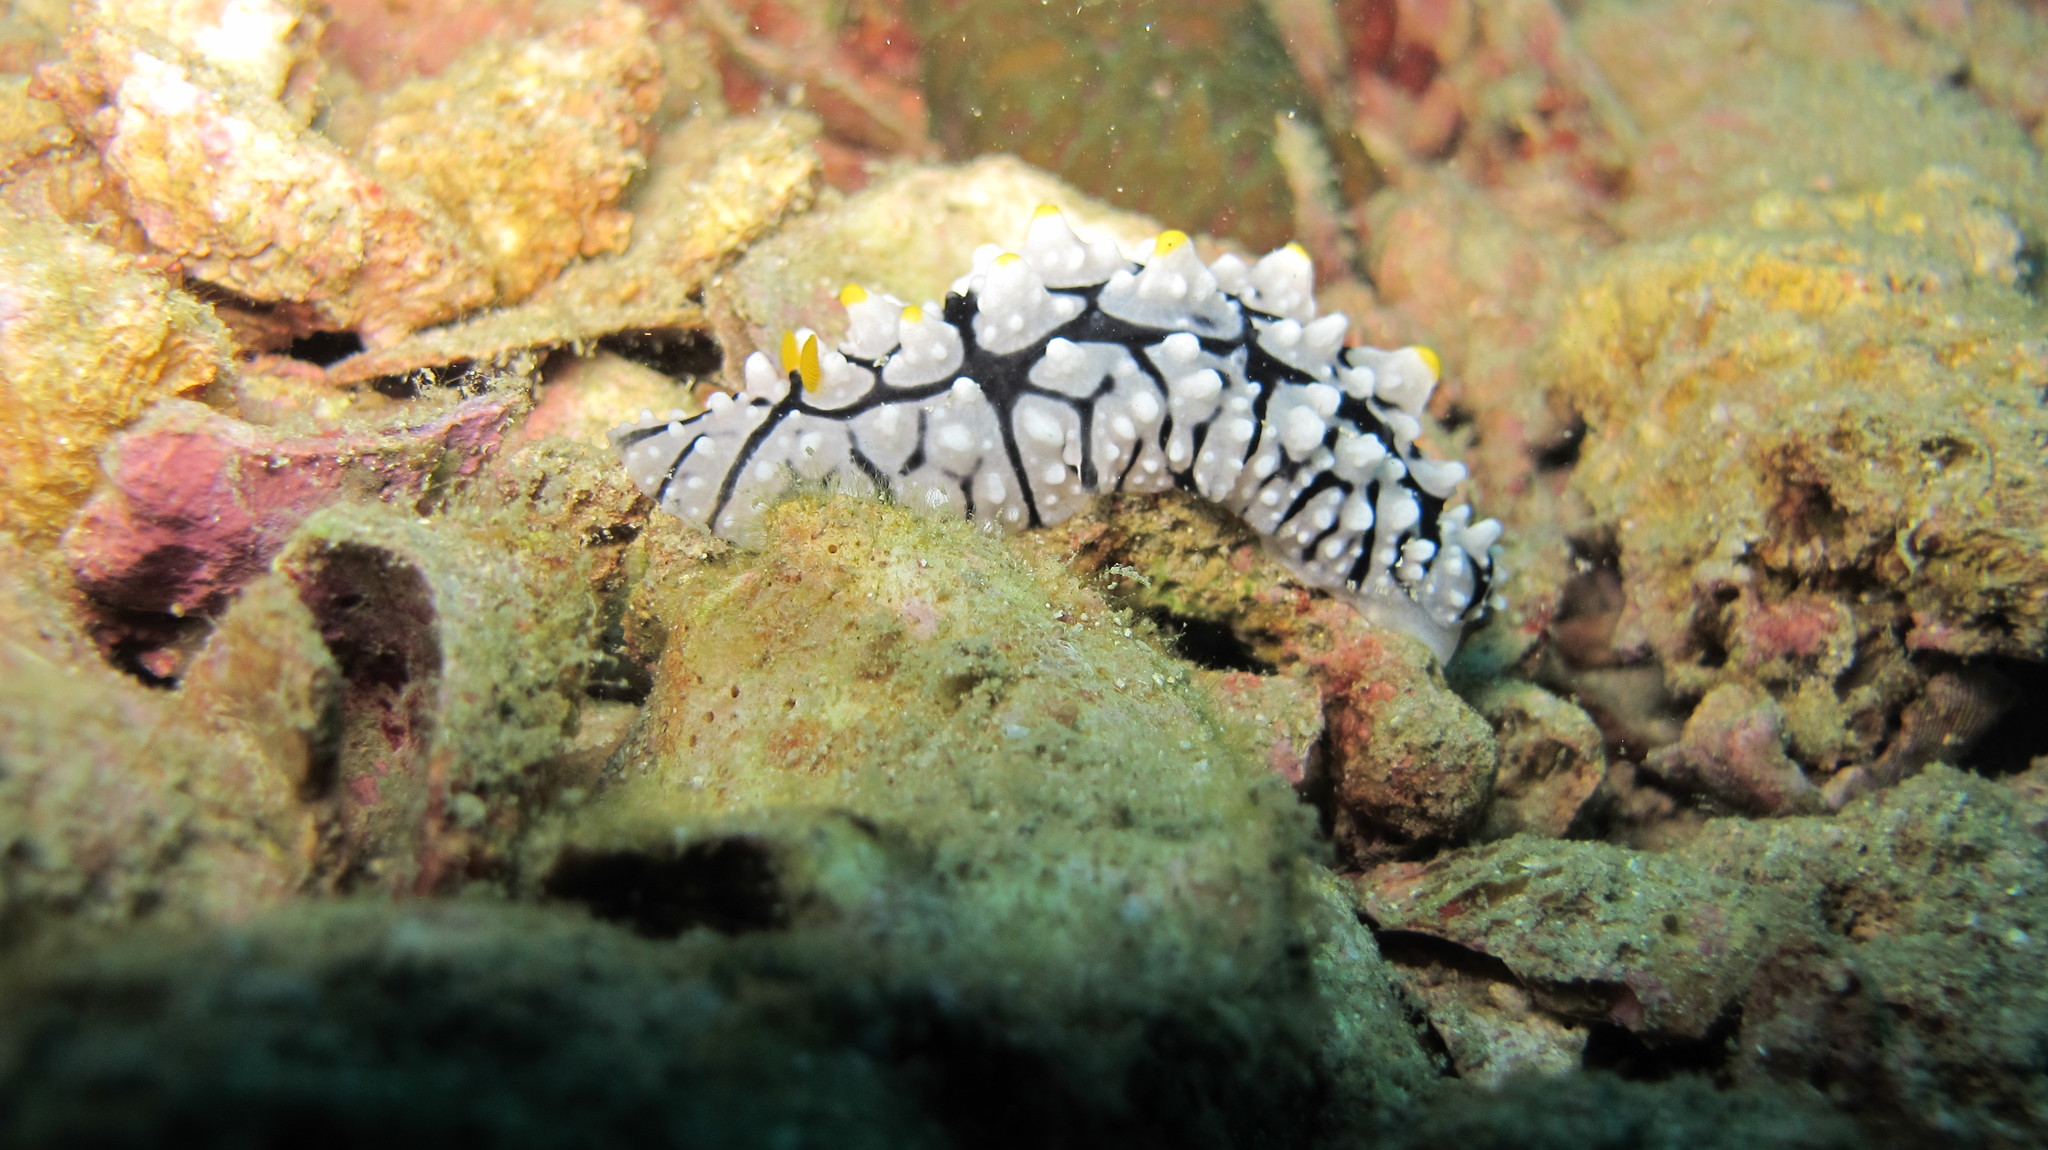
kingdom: Animalia
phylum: Mollusca
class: Gastropoda
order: Nudibranchia
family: Phyllidiidae
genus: Phyllidia
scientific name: Phyllidia elegans
